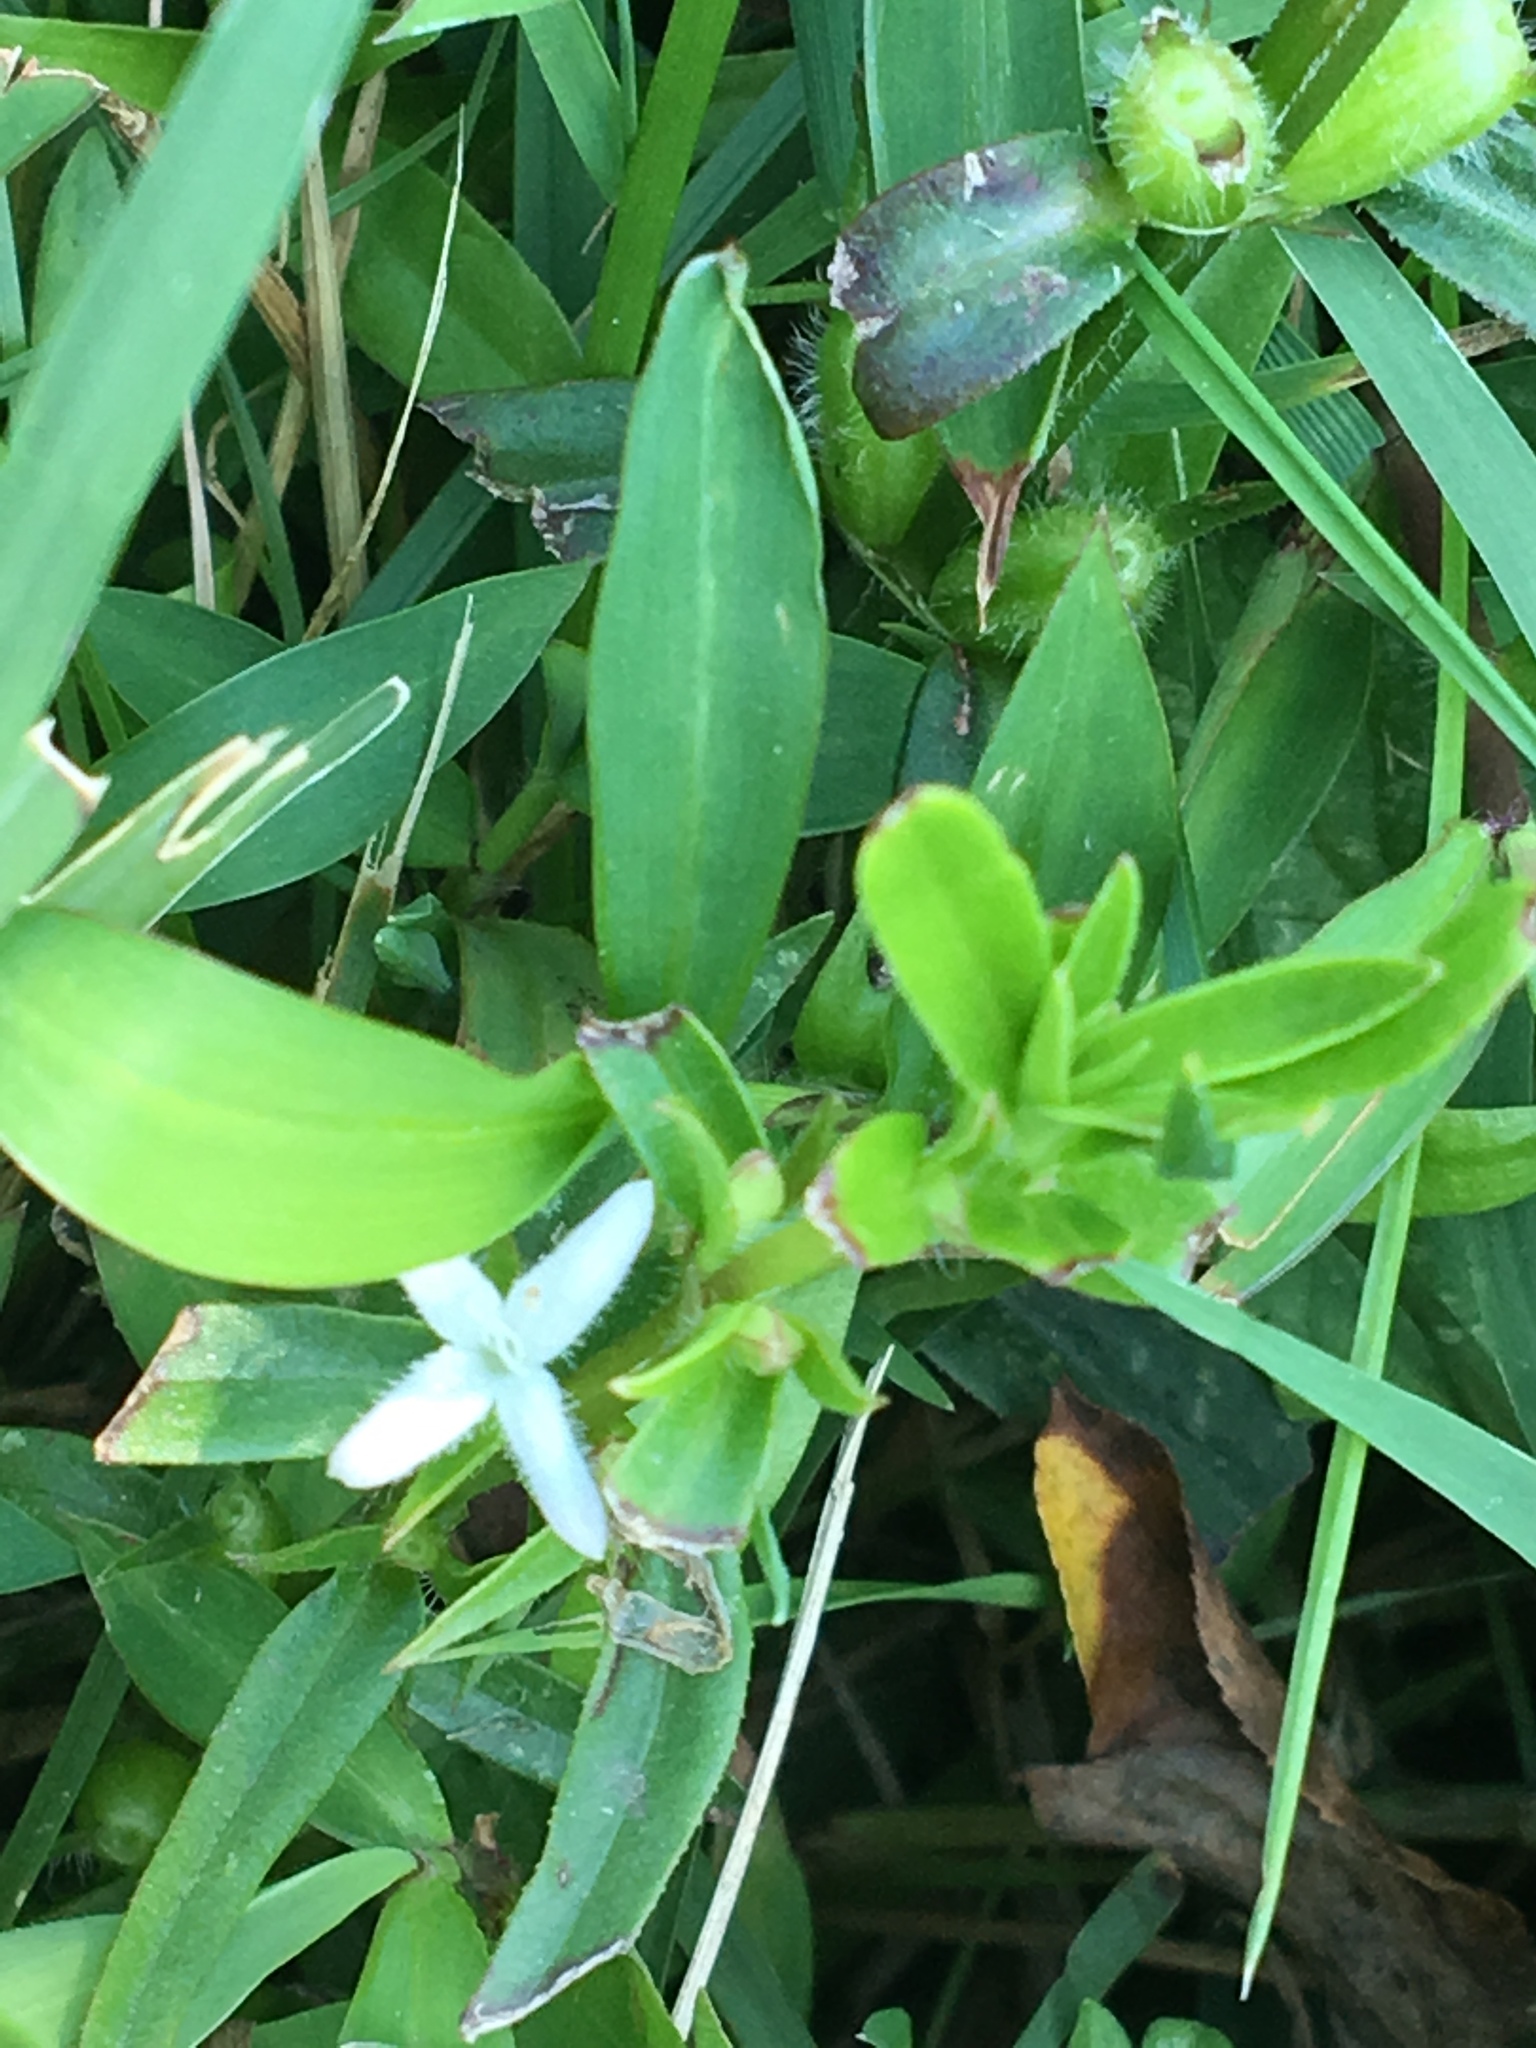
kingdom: Plantae
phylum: Tracheophyta
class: Magnoliopsida
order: Gentianales
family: Rubiaceae
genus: Diodia
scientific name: Diodia virginiana
